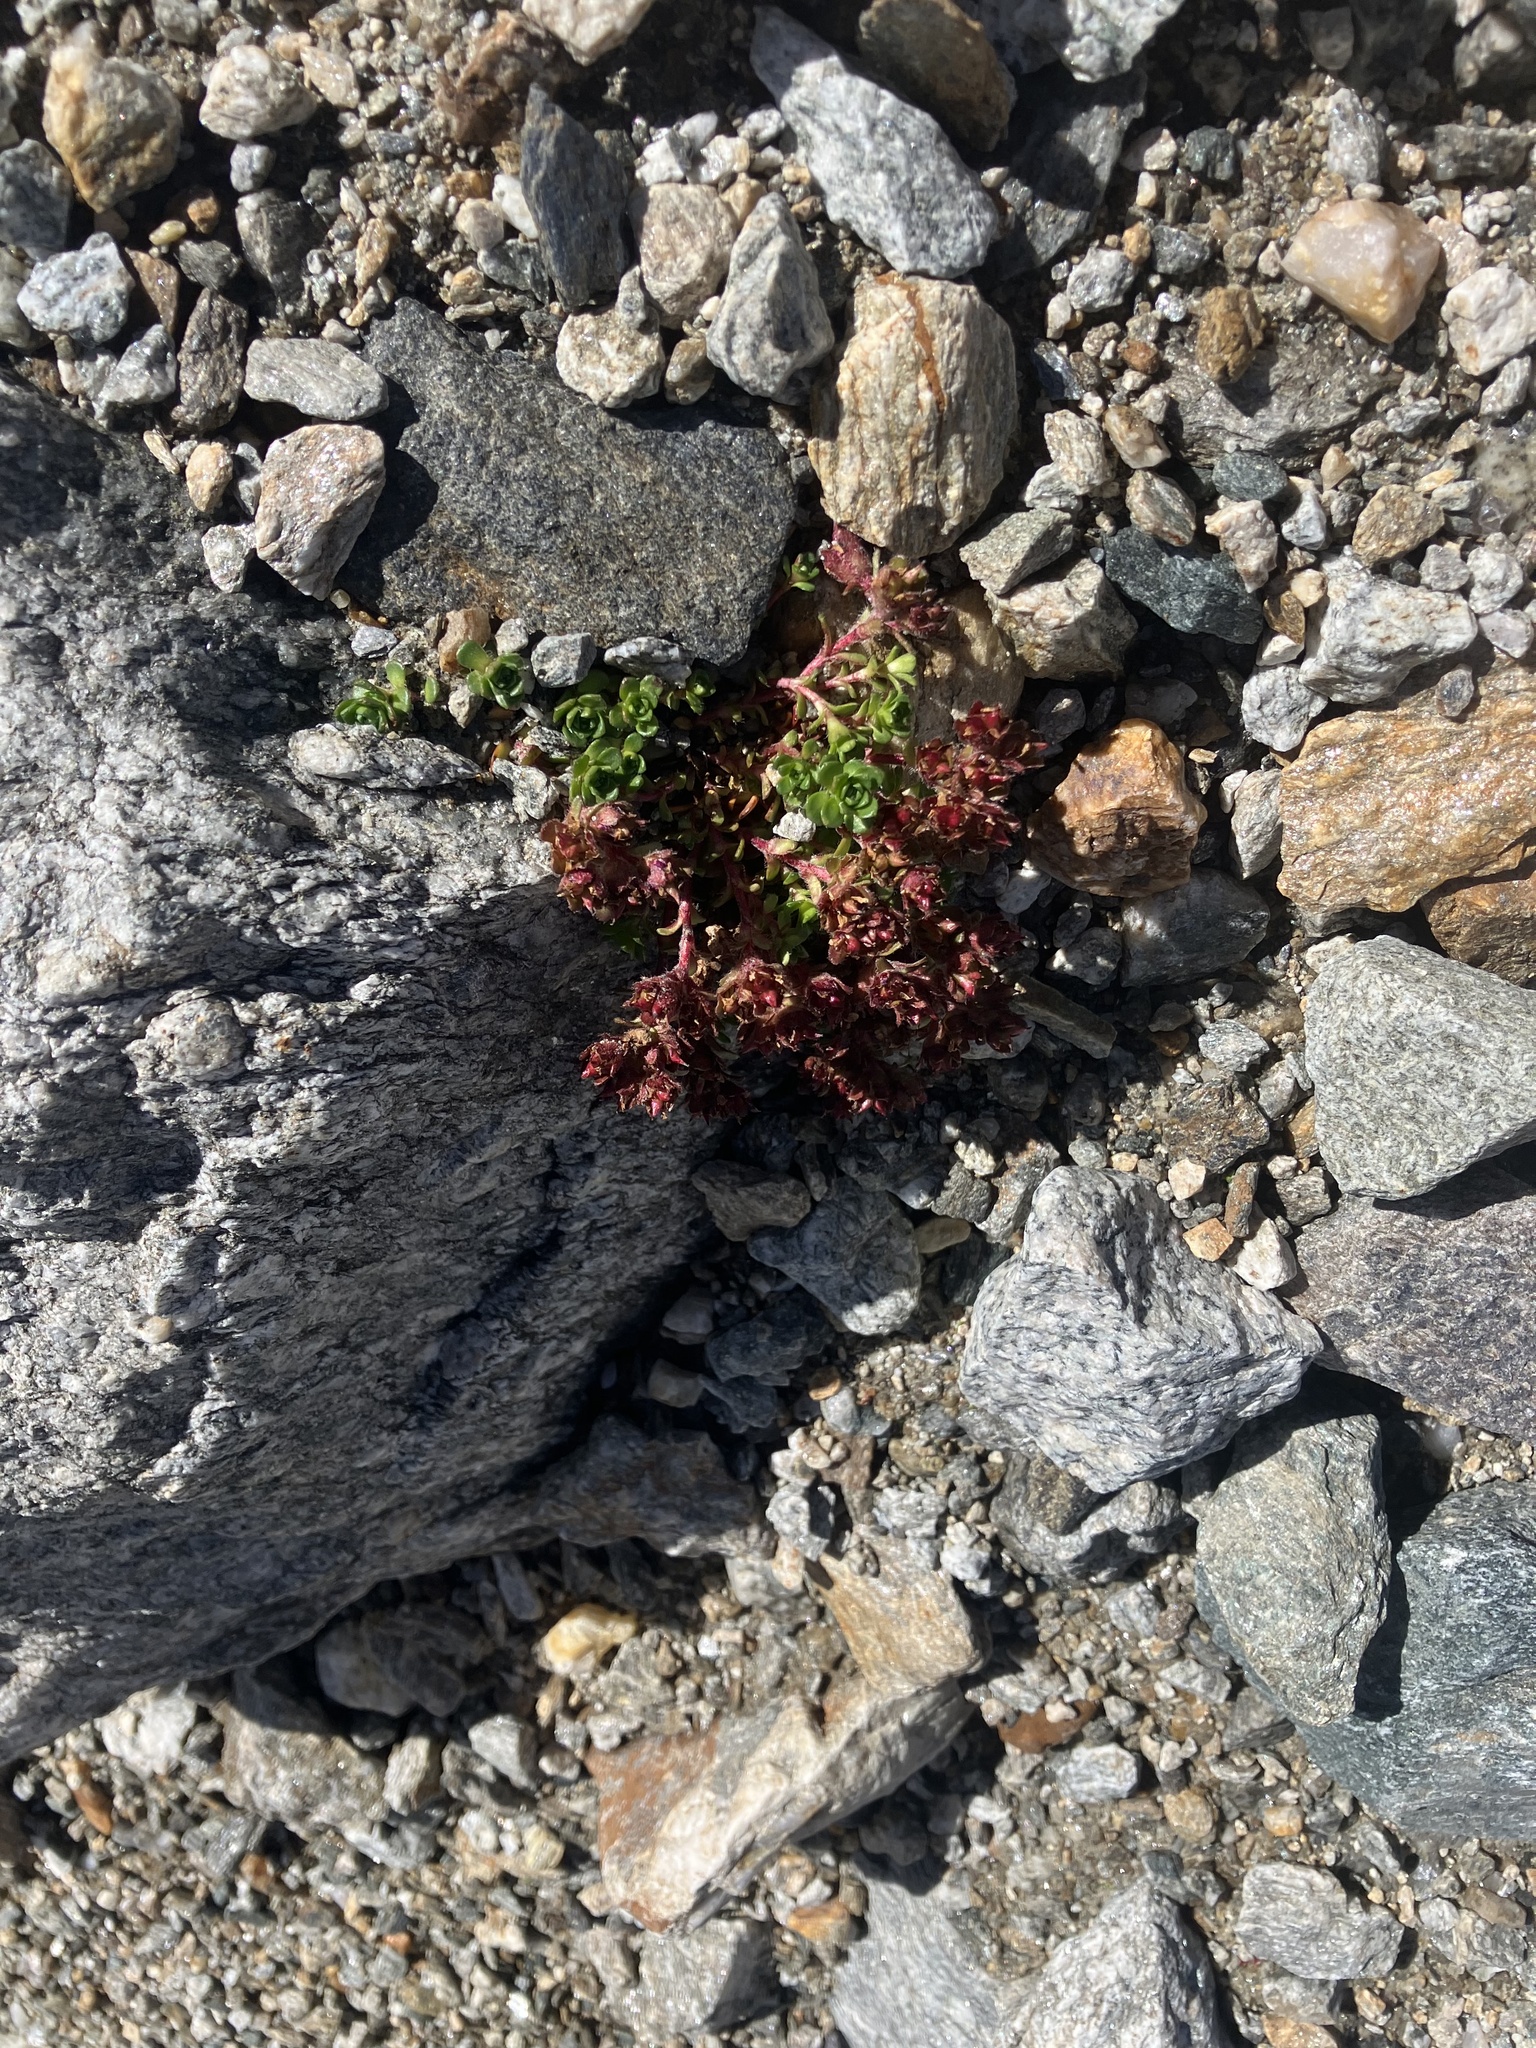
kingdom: Plantae
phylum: Tracheophyta
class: Magnoliopsida
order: Saxifragales
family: Saxifragaceae
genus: Saxifraga
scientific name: Saxifraga biflora
